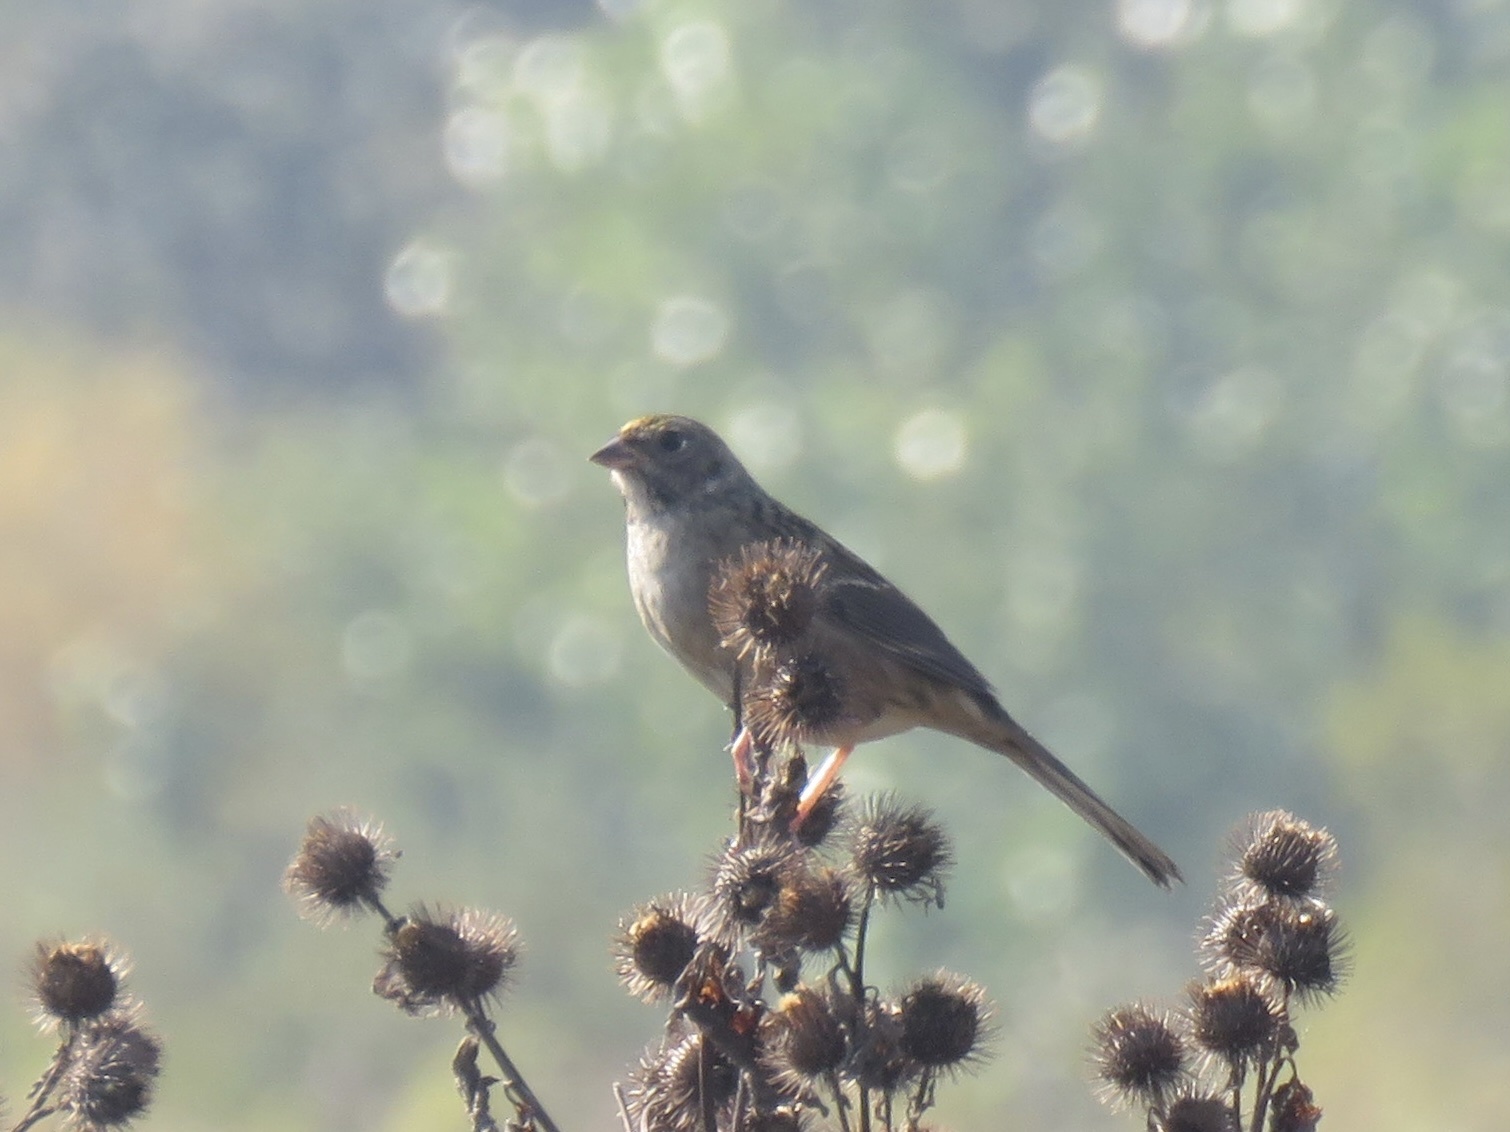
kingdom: Animalia
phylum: Chordata
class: Aves
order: Passeriformes
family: Passerellidae
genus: Zonotrichia
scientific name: Zonotrichia atricapilla
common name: Golden-crowned sparrow
